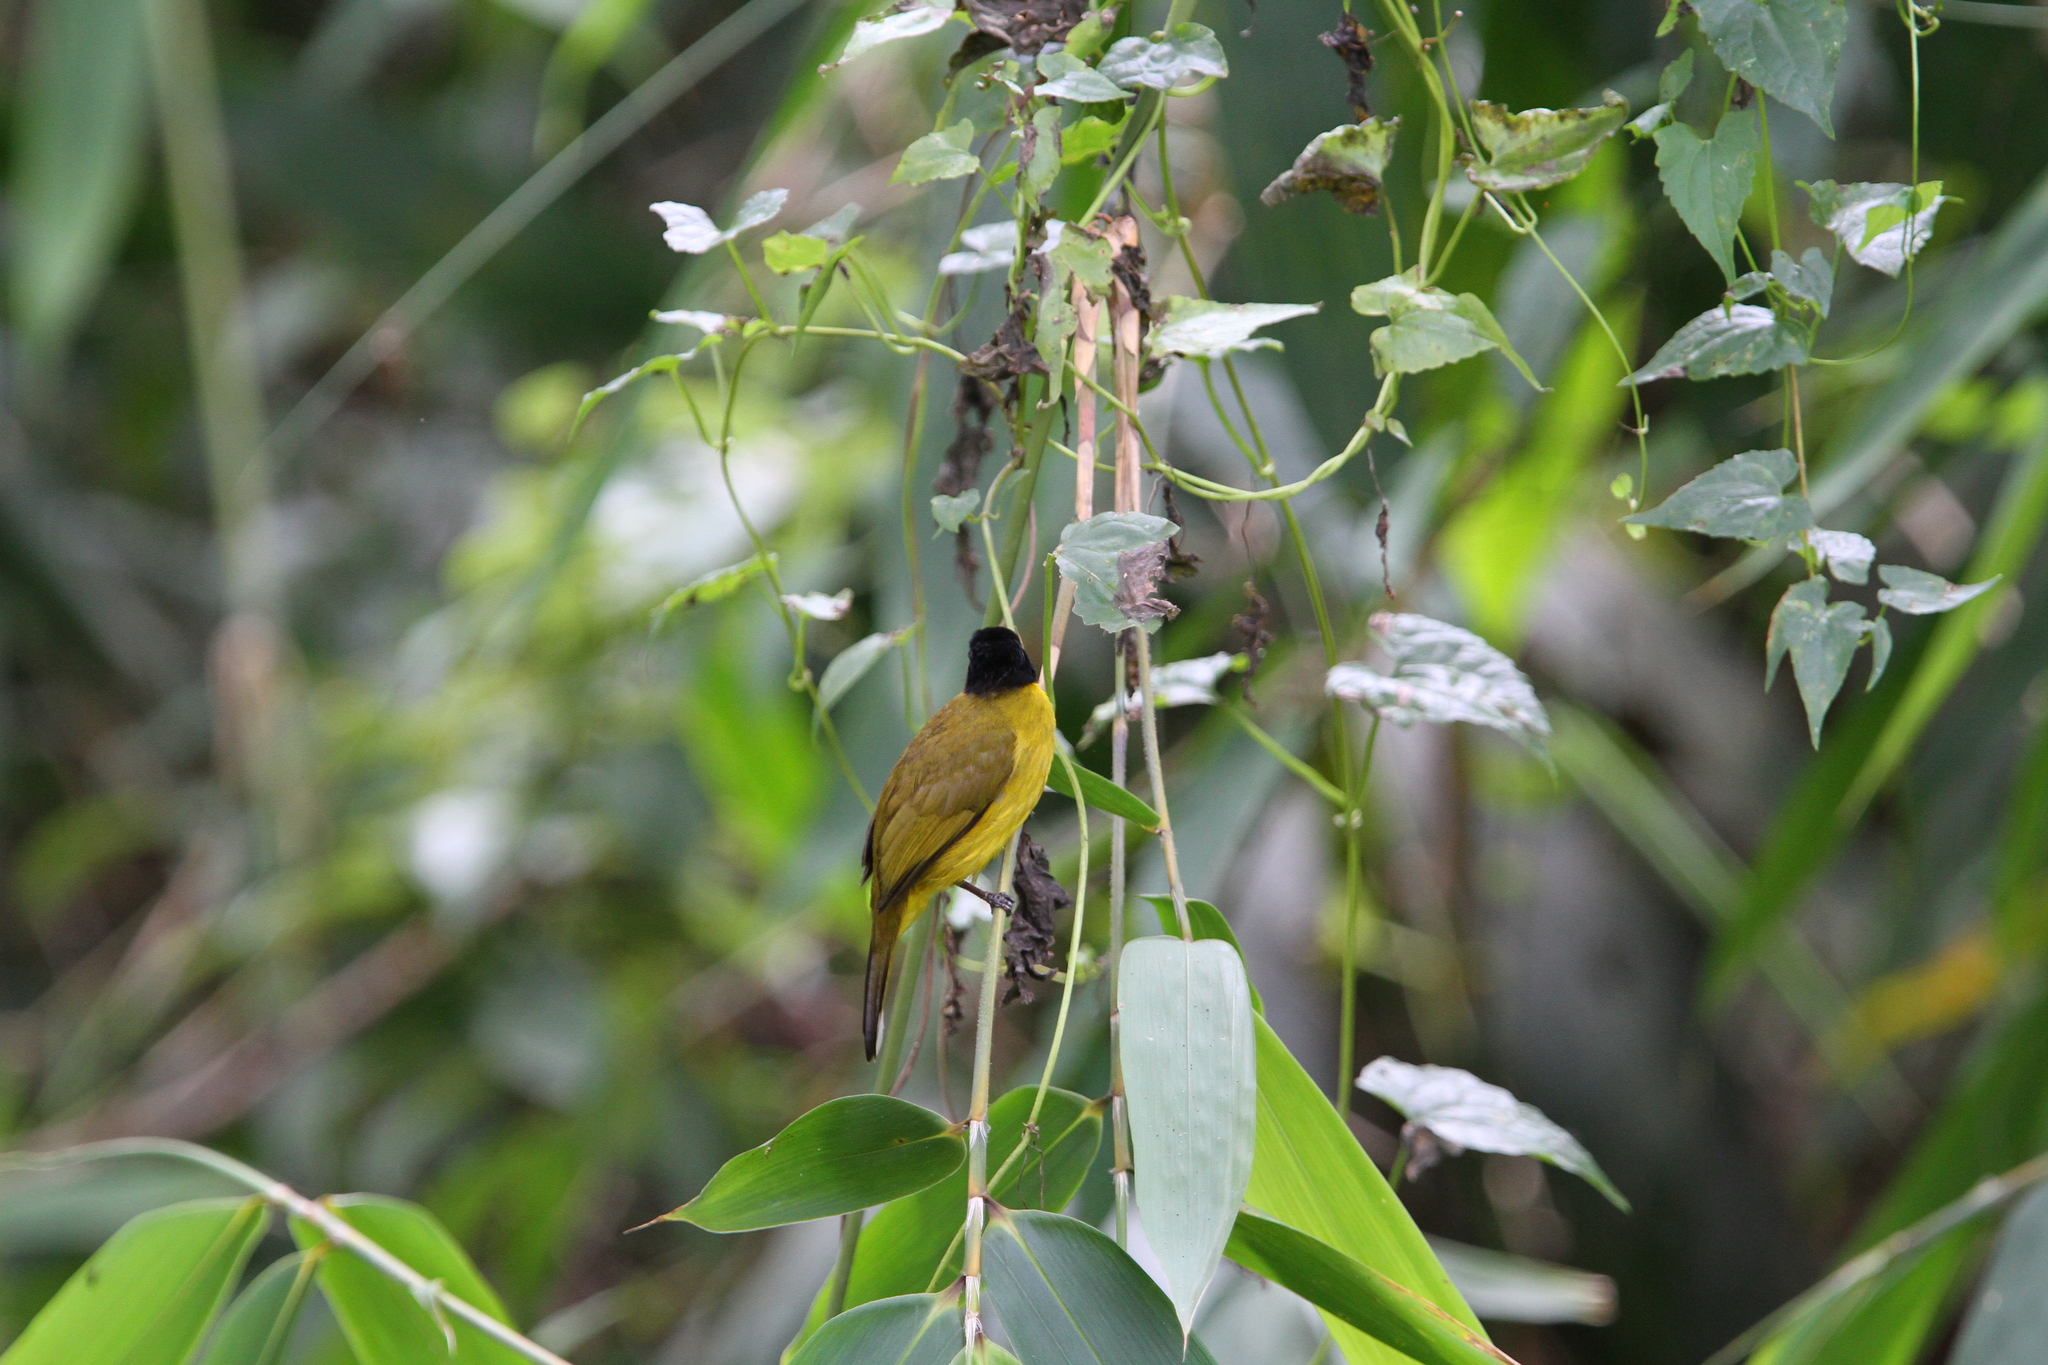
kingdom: Animalia
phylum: Chordata
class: Aves
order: Passeriformes
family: Pycnonotidae
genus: Pycnonotus
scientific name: Pycnonotus melanicterus
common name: Black-crested bulbul
